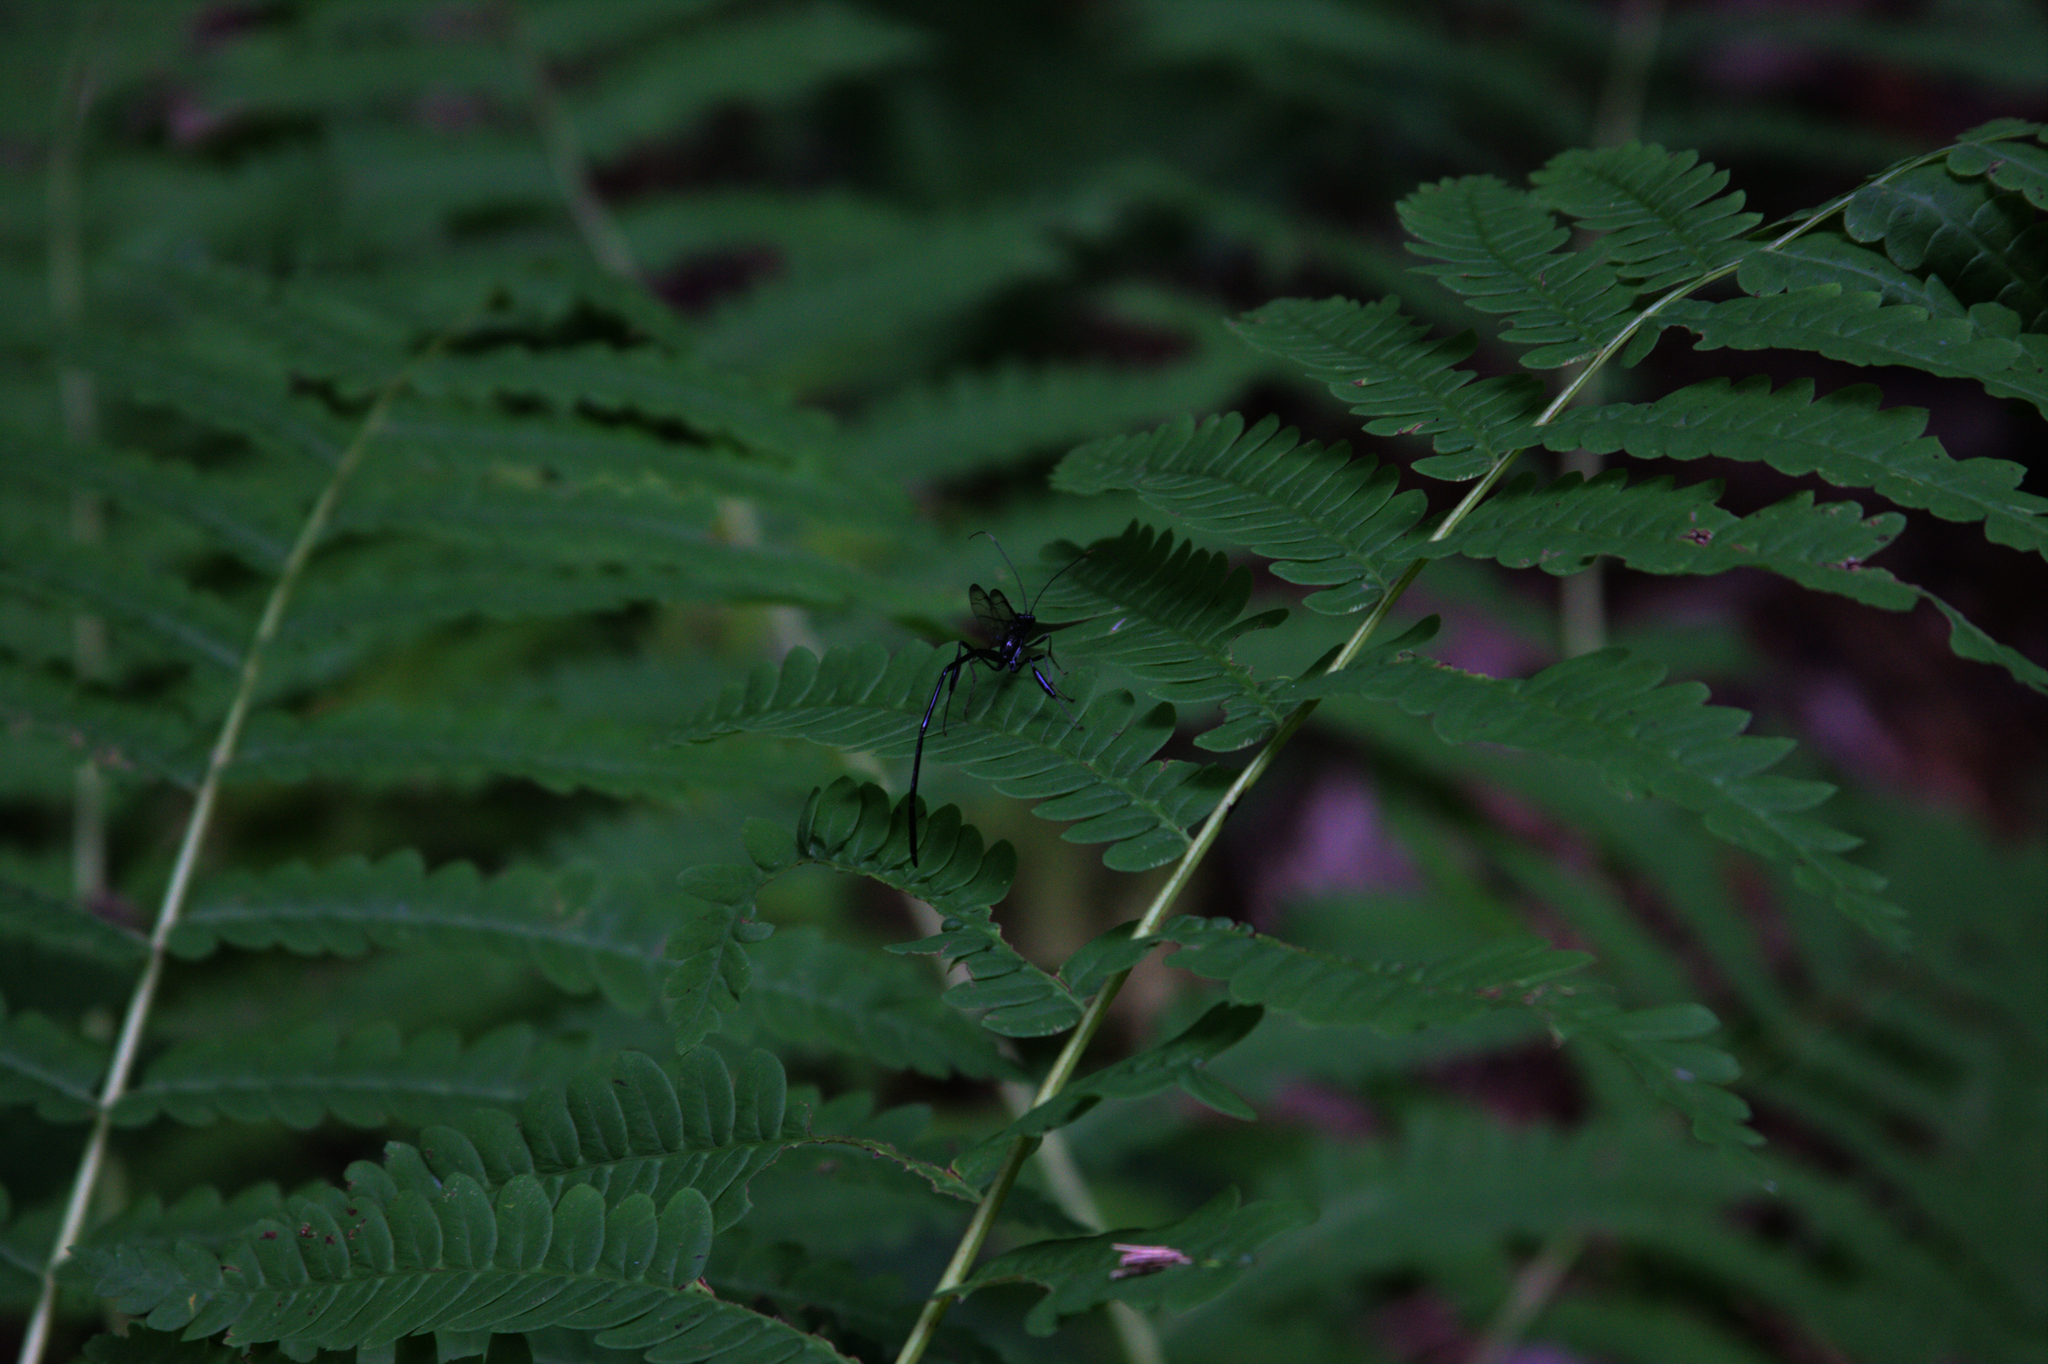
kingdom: Animalia
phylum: Arthropoda
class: Insecta
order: Hymenoptera
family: Pelecinidae
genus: Pelecinus
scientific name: Pelecinus polyturator
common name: American pelecinid wasp
